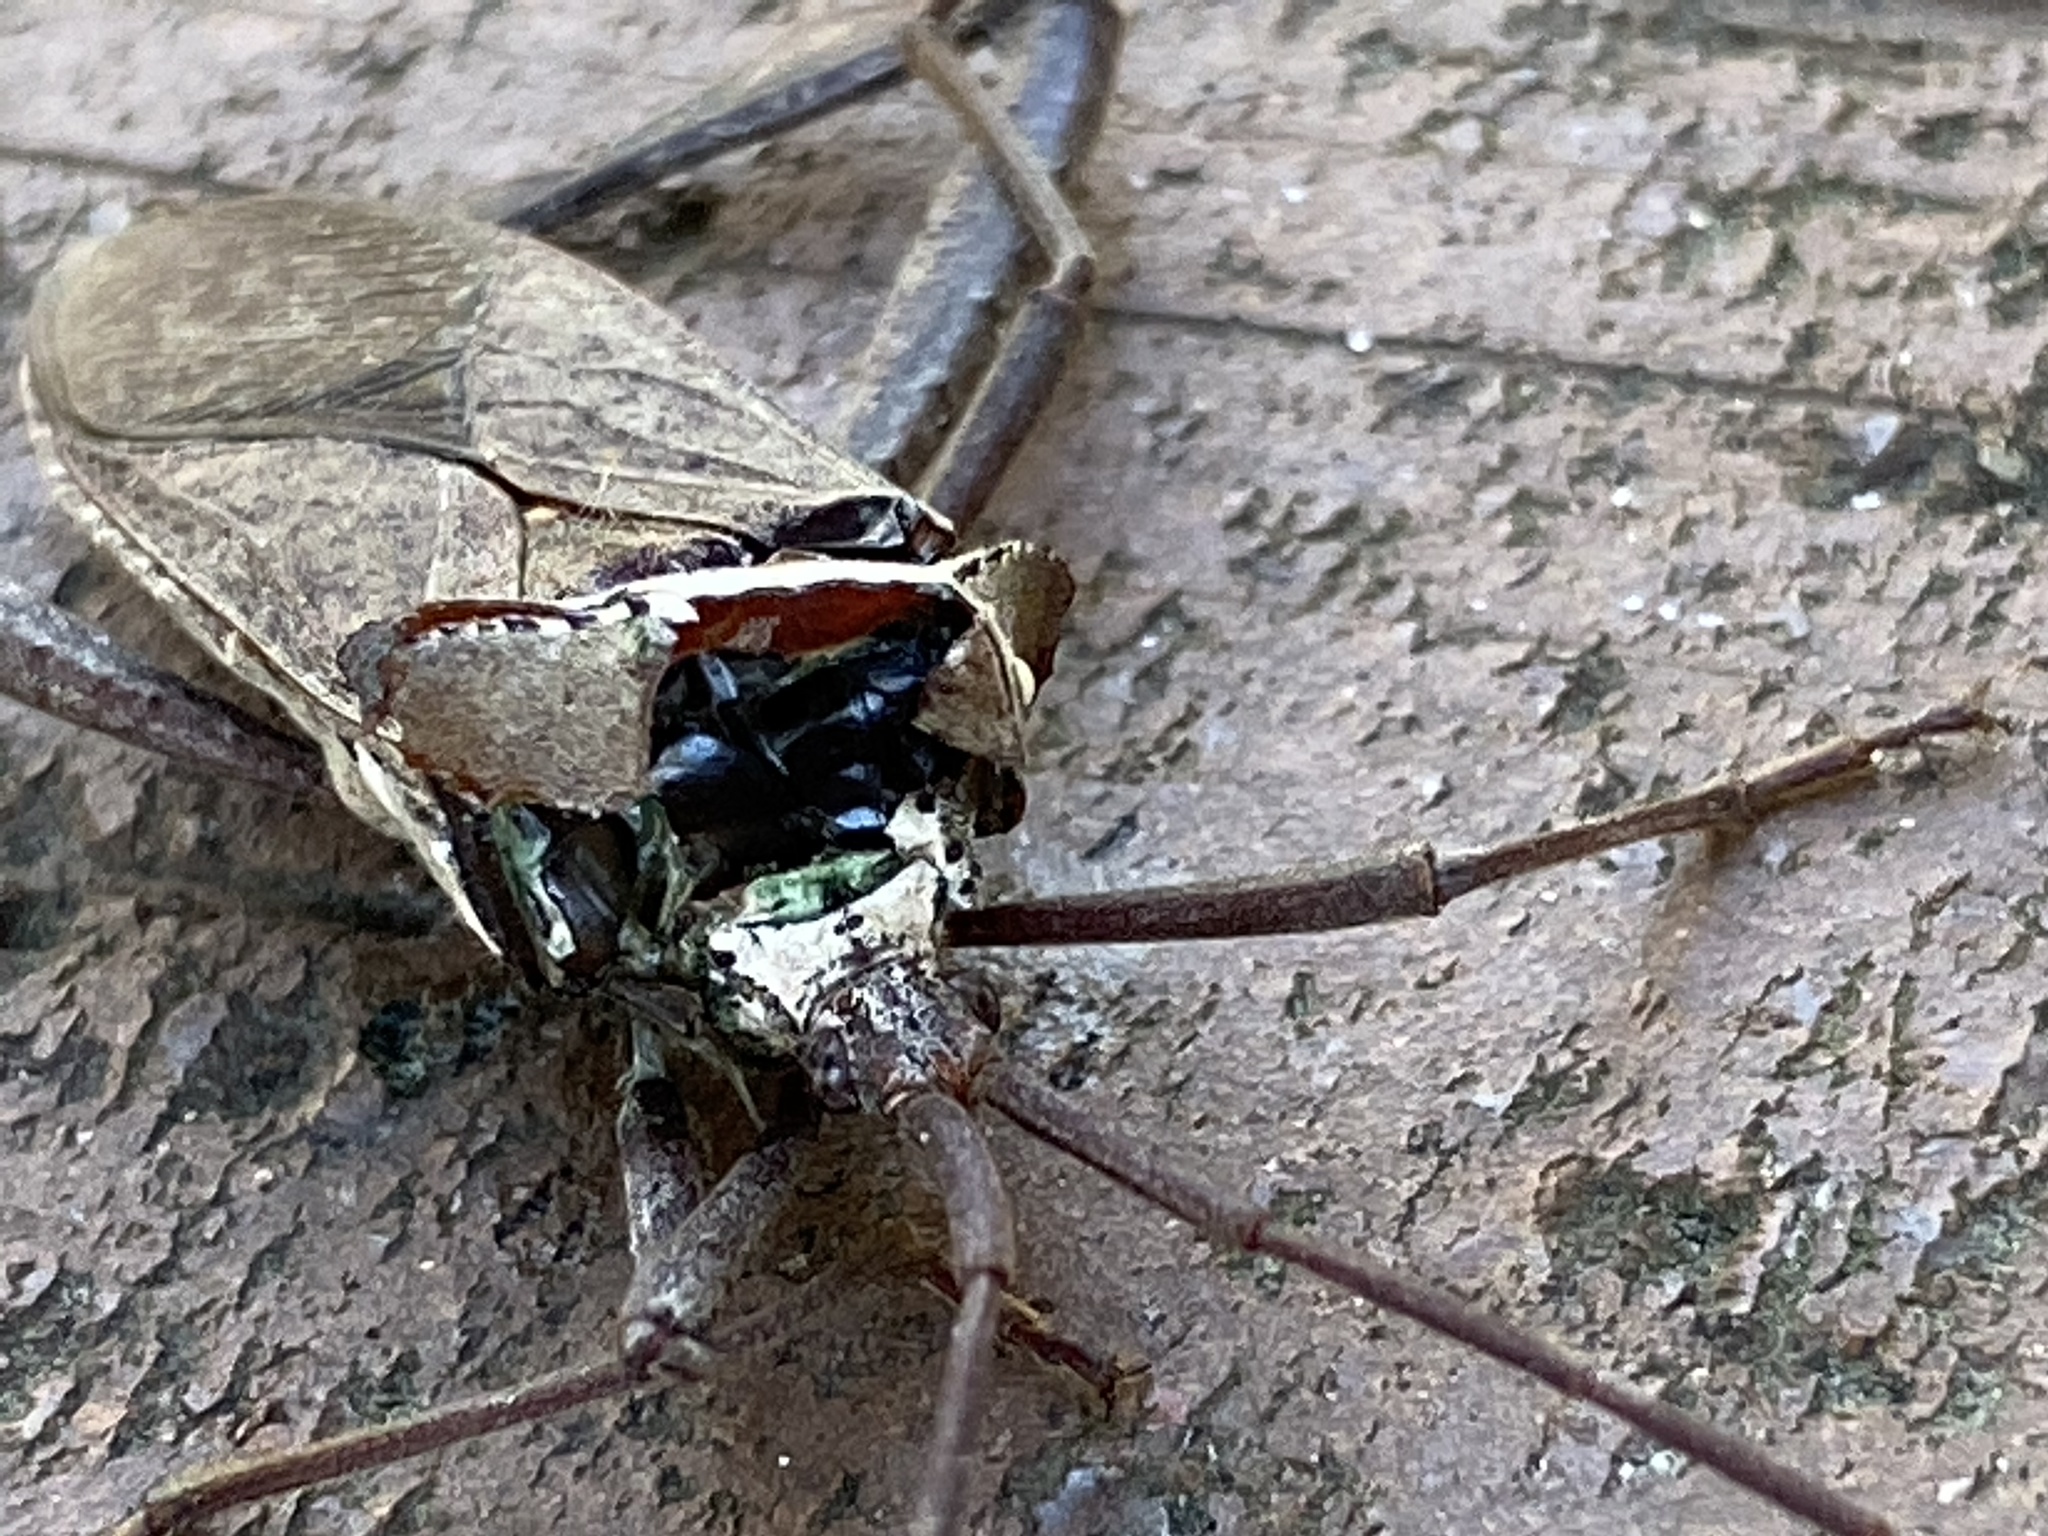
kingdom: Animalia
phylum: Arthropoda
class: Insecta
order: Hemiptera
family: Coreidae
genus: Acanthocephala
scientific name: Acanthocephala declivis
